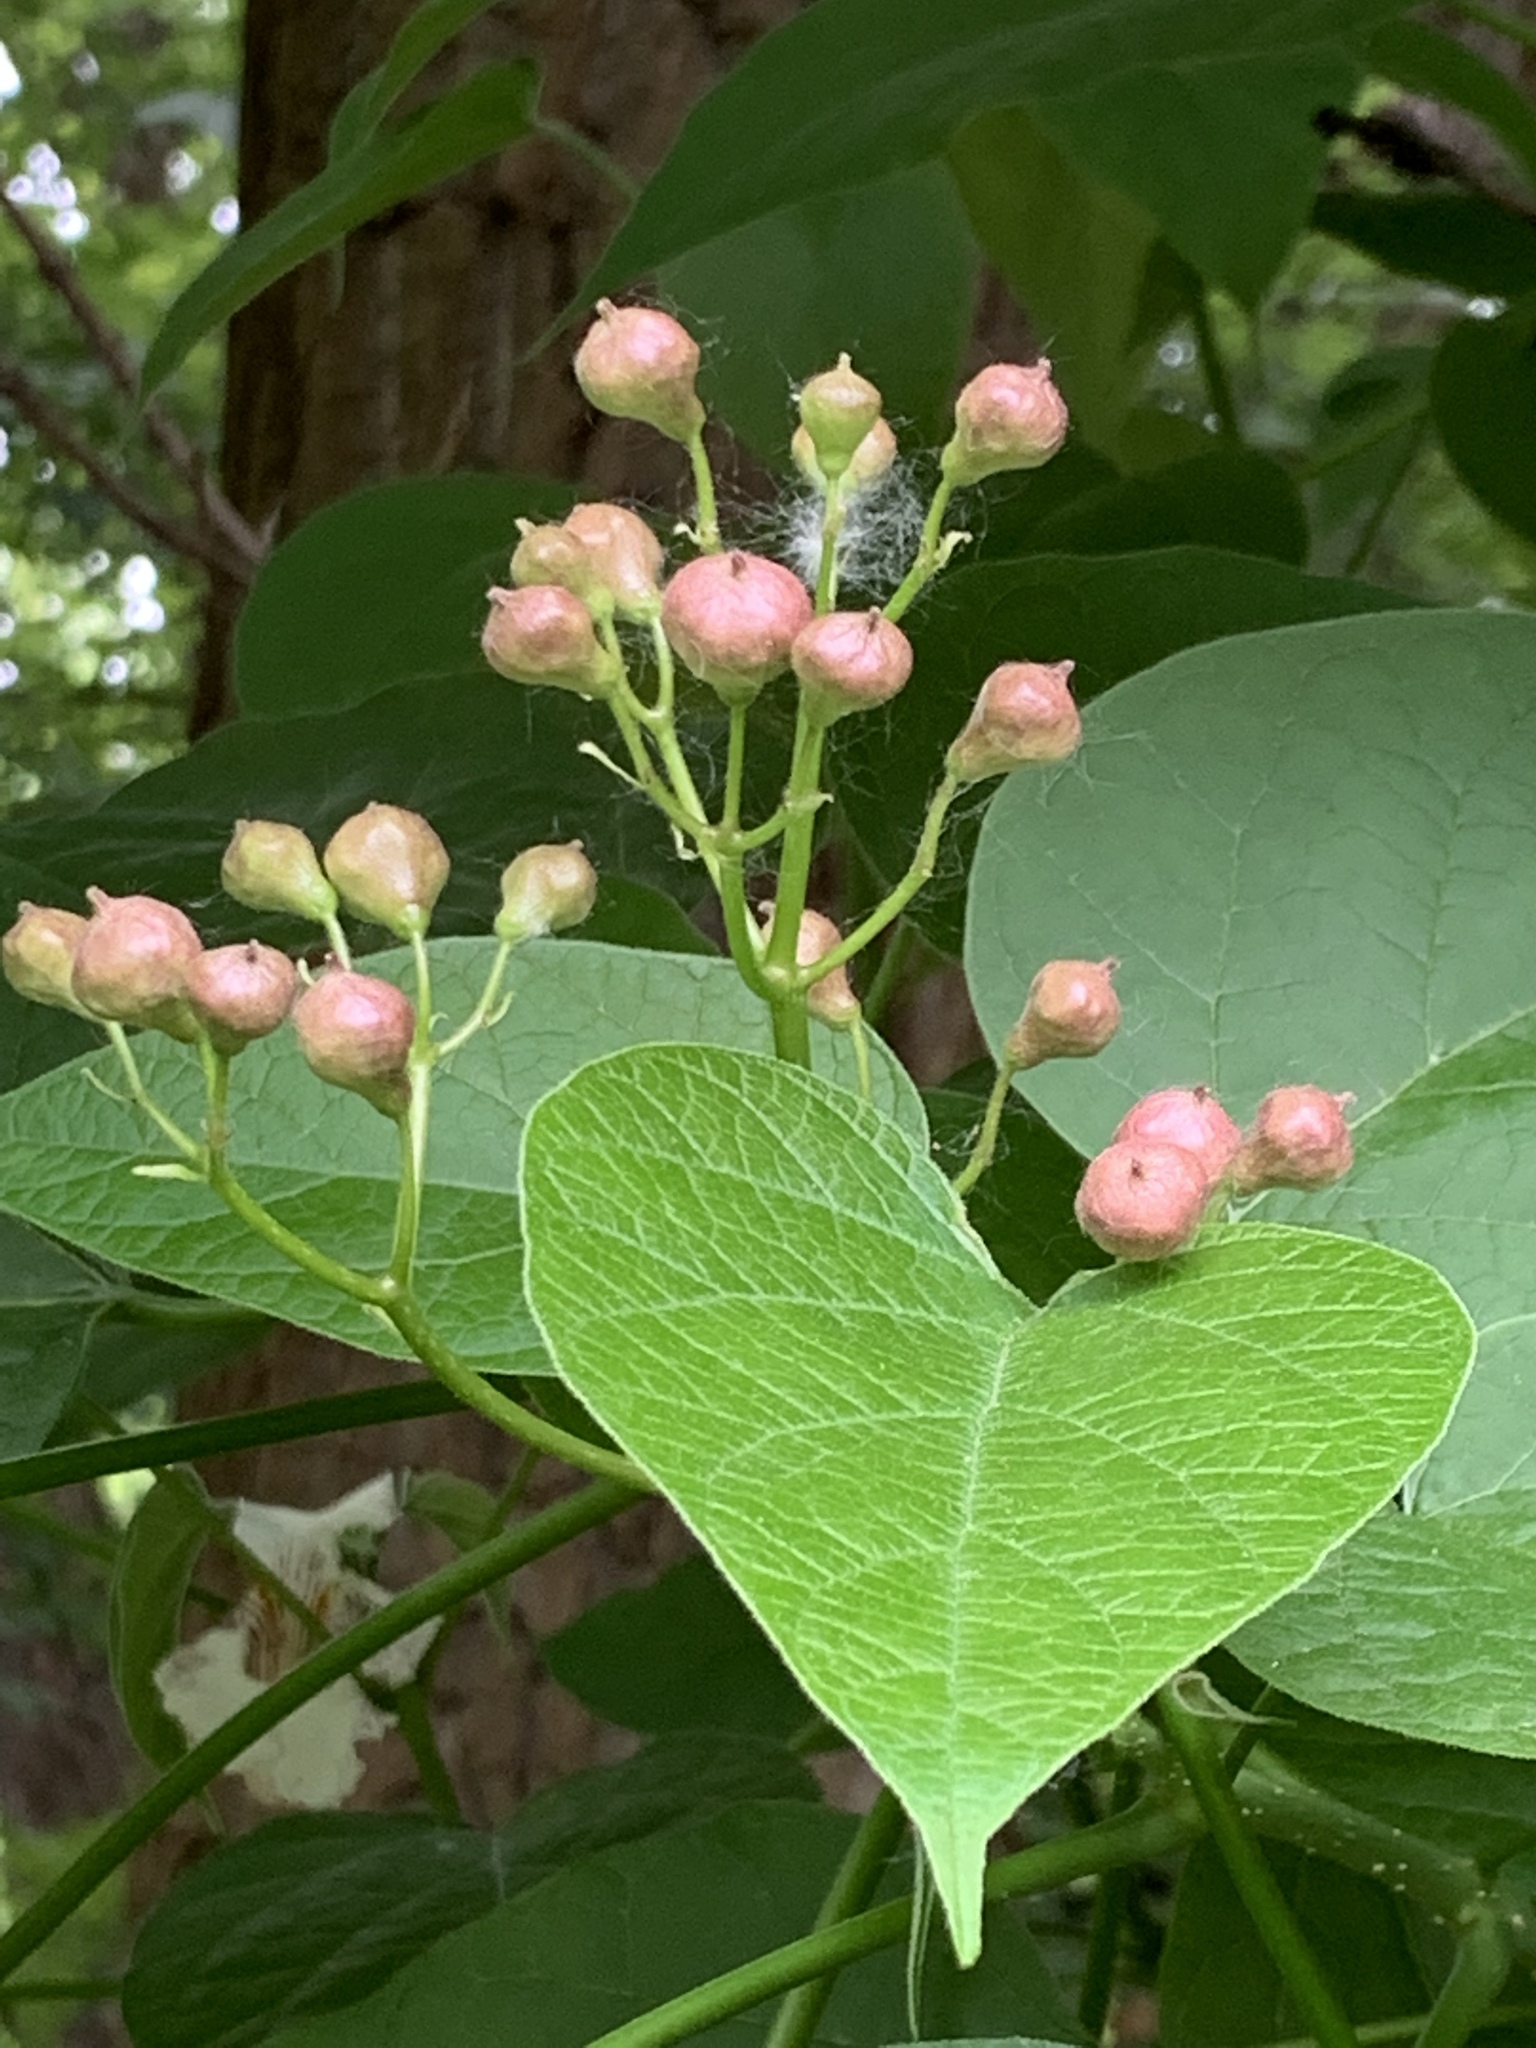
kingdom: Plantae
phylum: Tracheophyta
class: Magnoliopsida
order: Lamiales
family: Bignoniaceae
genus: Catalpa
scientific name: Catalpa speciosa
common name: Northern catalpa
